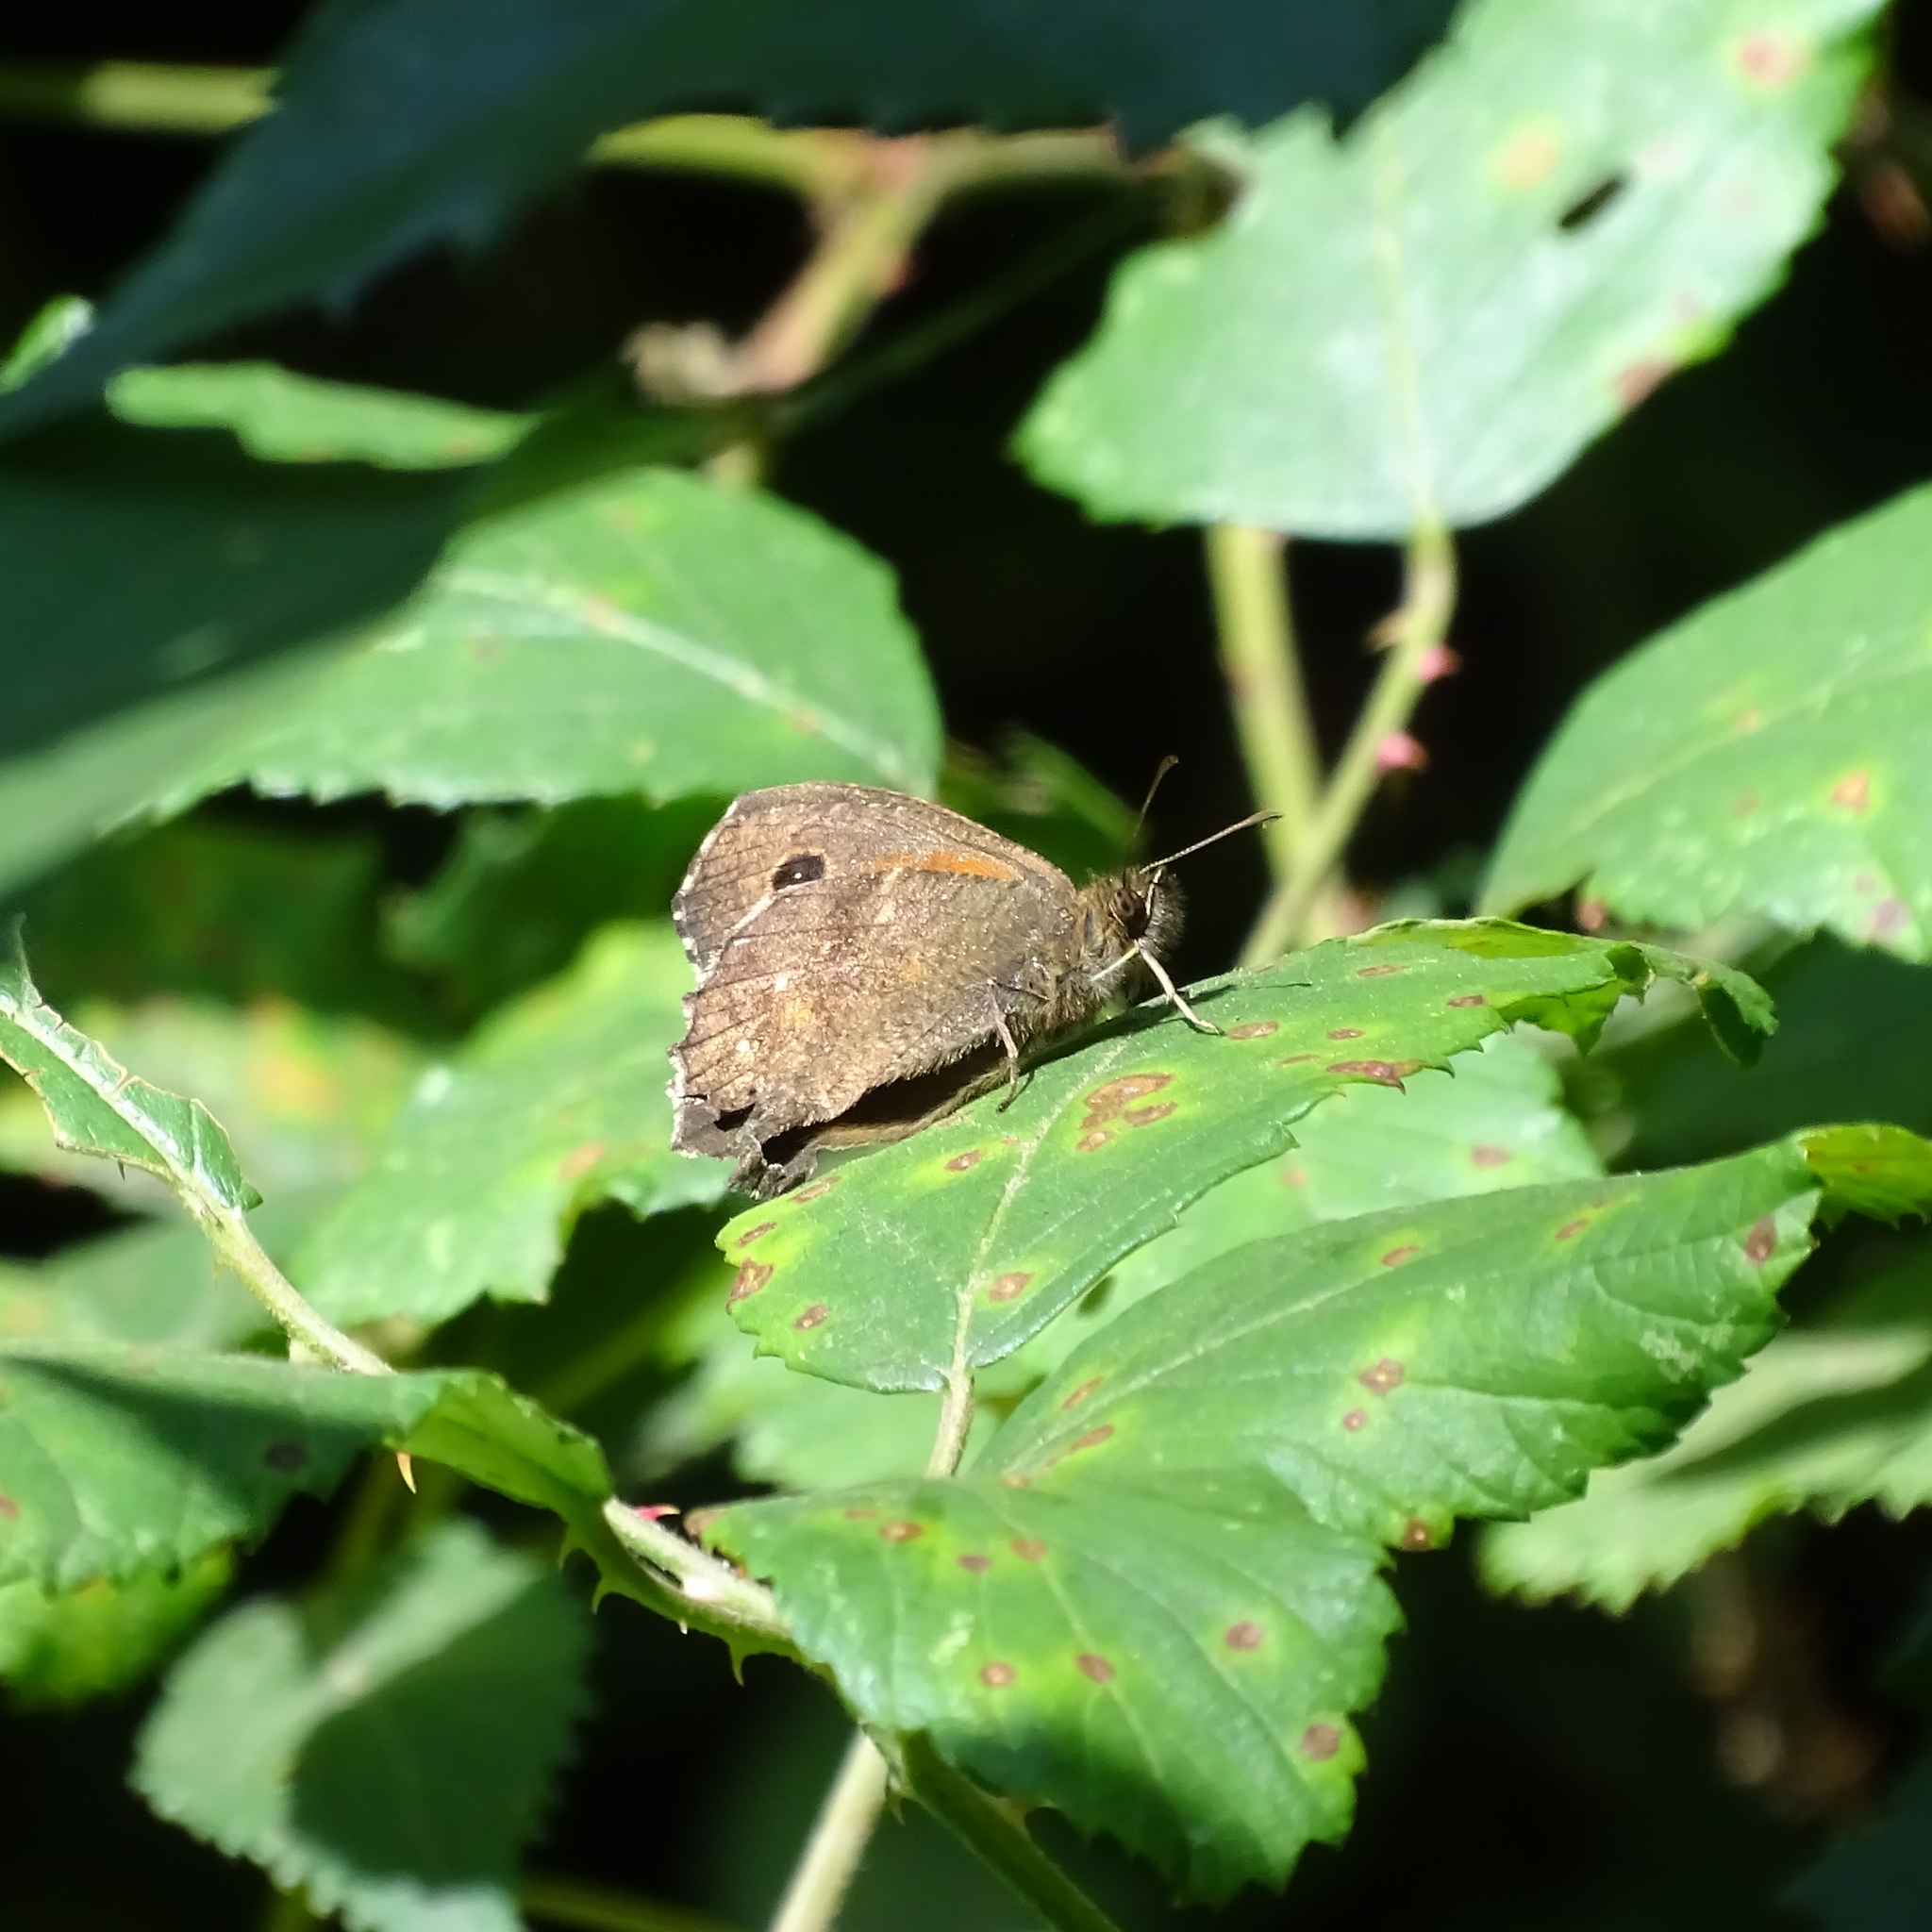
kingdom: Animalia
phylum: Arthropoda
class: Insecta
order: Lepidoptera
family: Nymphalidae
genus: Auca
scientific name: Auca
